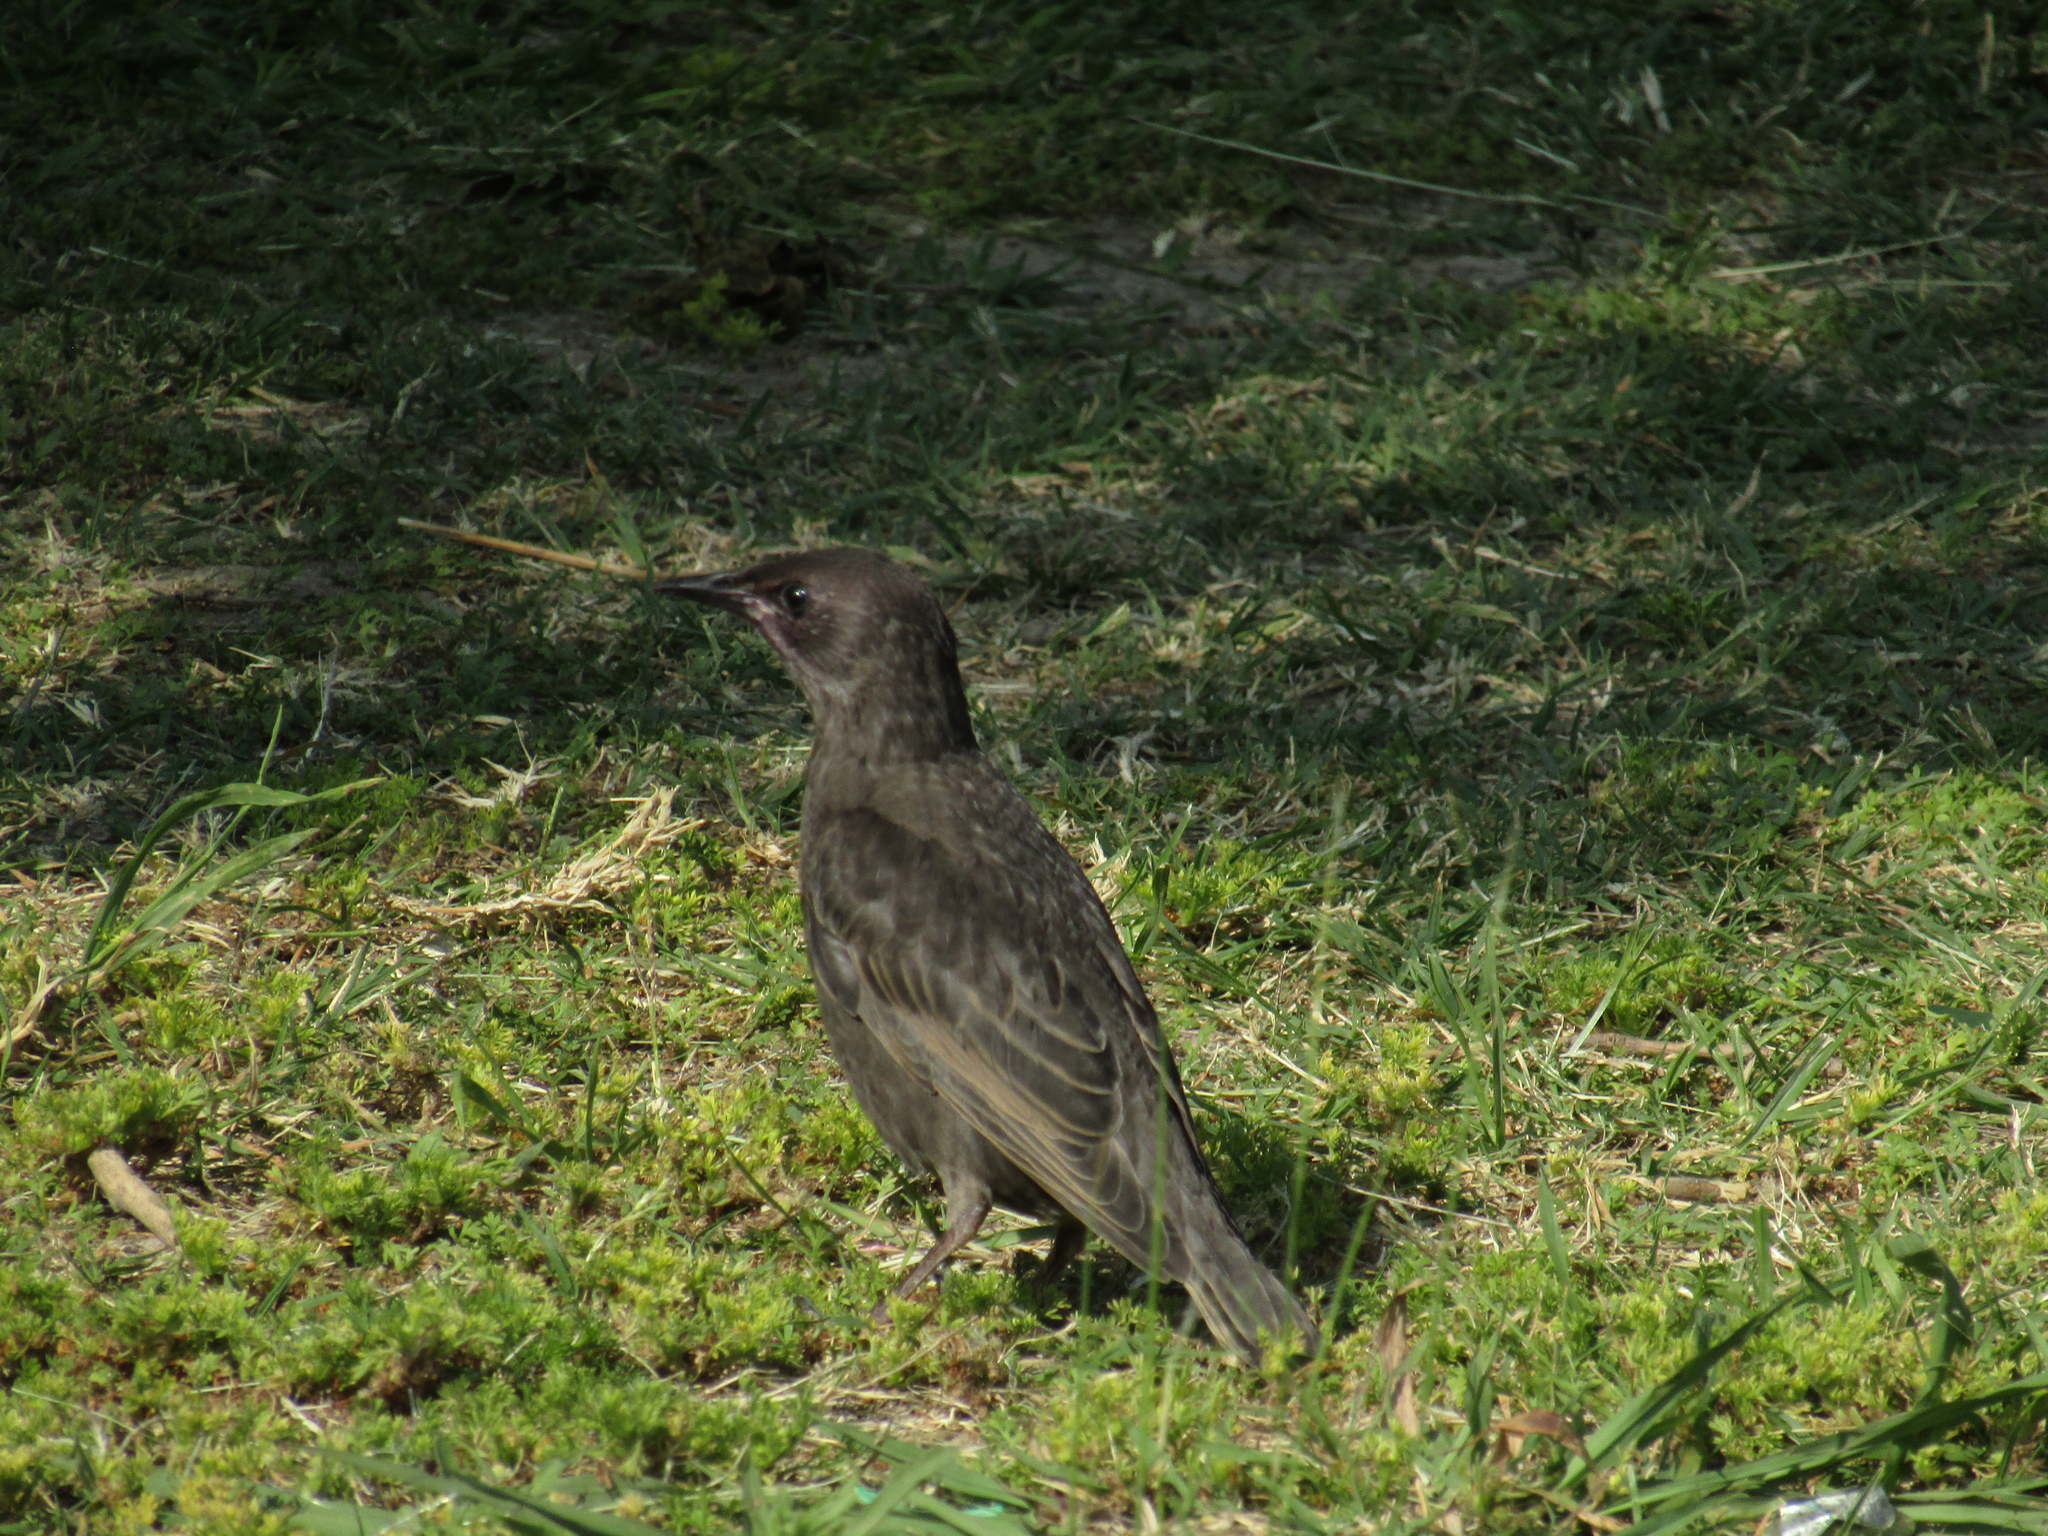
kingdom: Animalia
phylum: Chordata
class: Aves
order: Passeriformes
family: Sturnidae
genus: Sturnus
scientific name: Sturnus vulgaris
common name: Common starling
